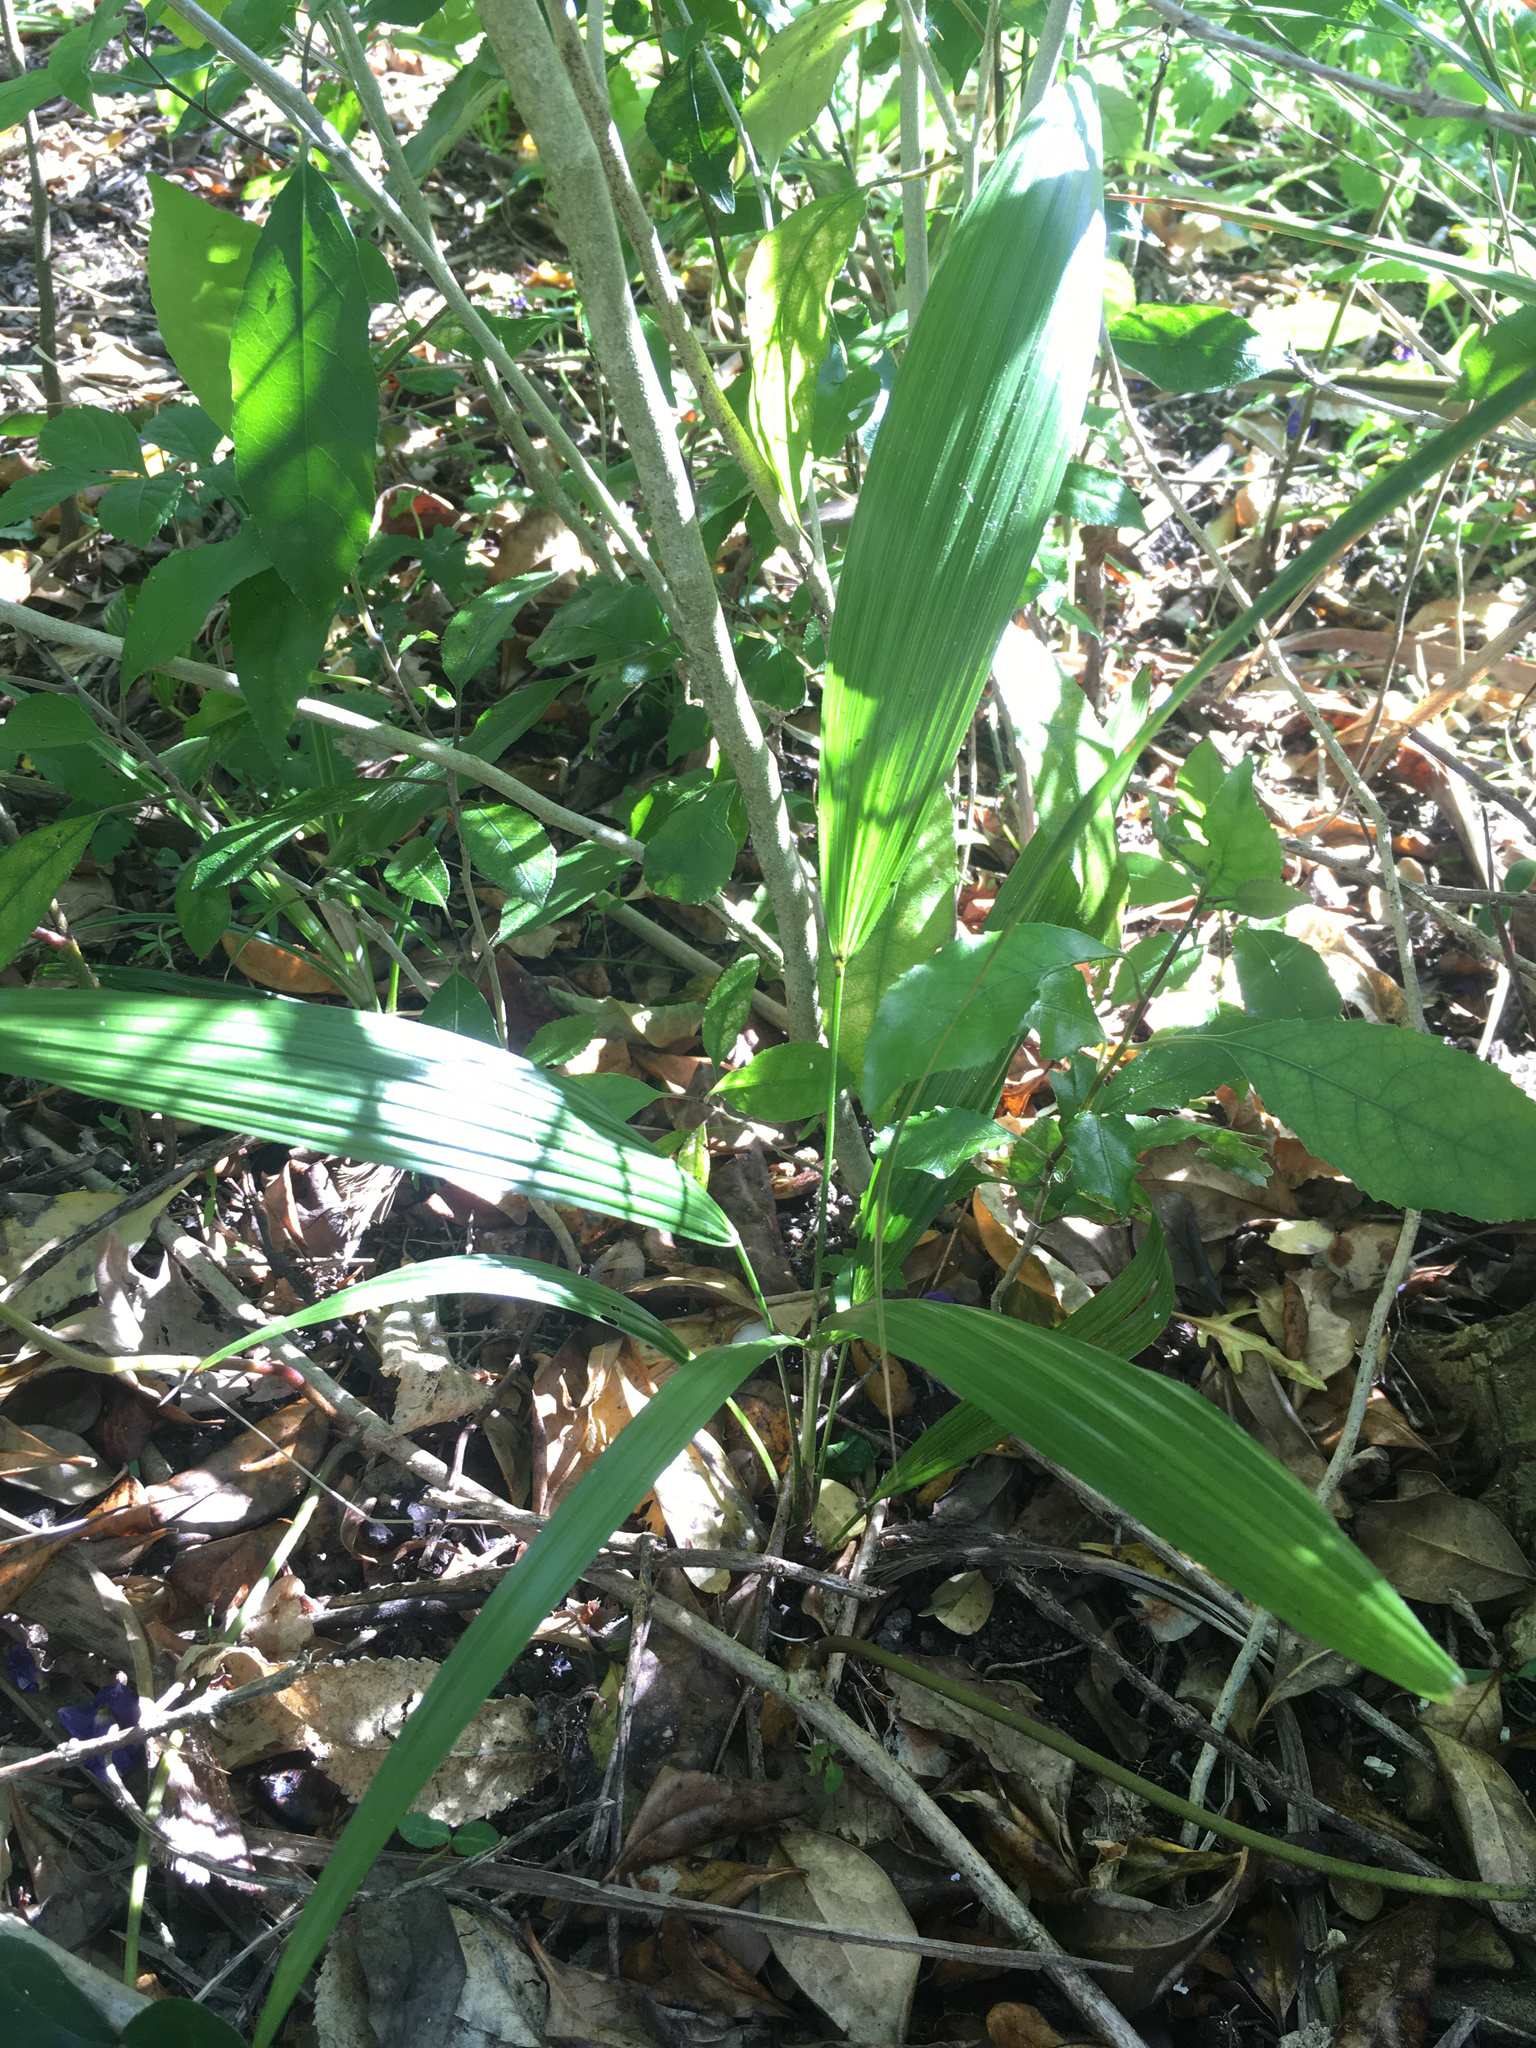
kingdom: Plantae
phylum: Tracheophyta
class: Liliopsida
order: Arecales
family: Arecaceae
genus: Trachycarpus
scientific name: Trachycarpus fortunei
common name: Chusan palm
